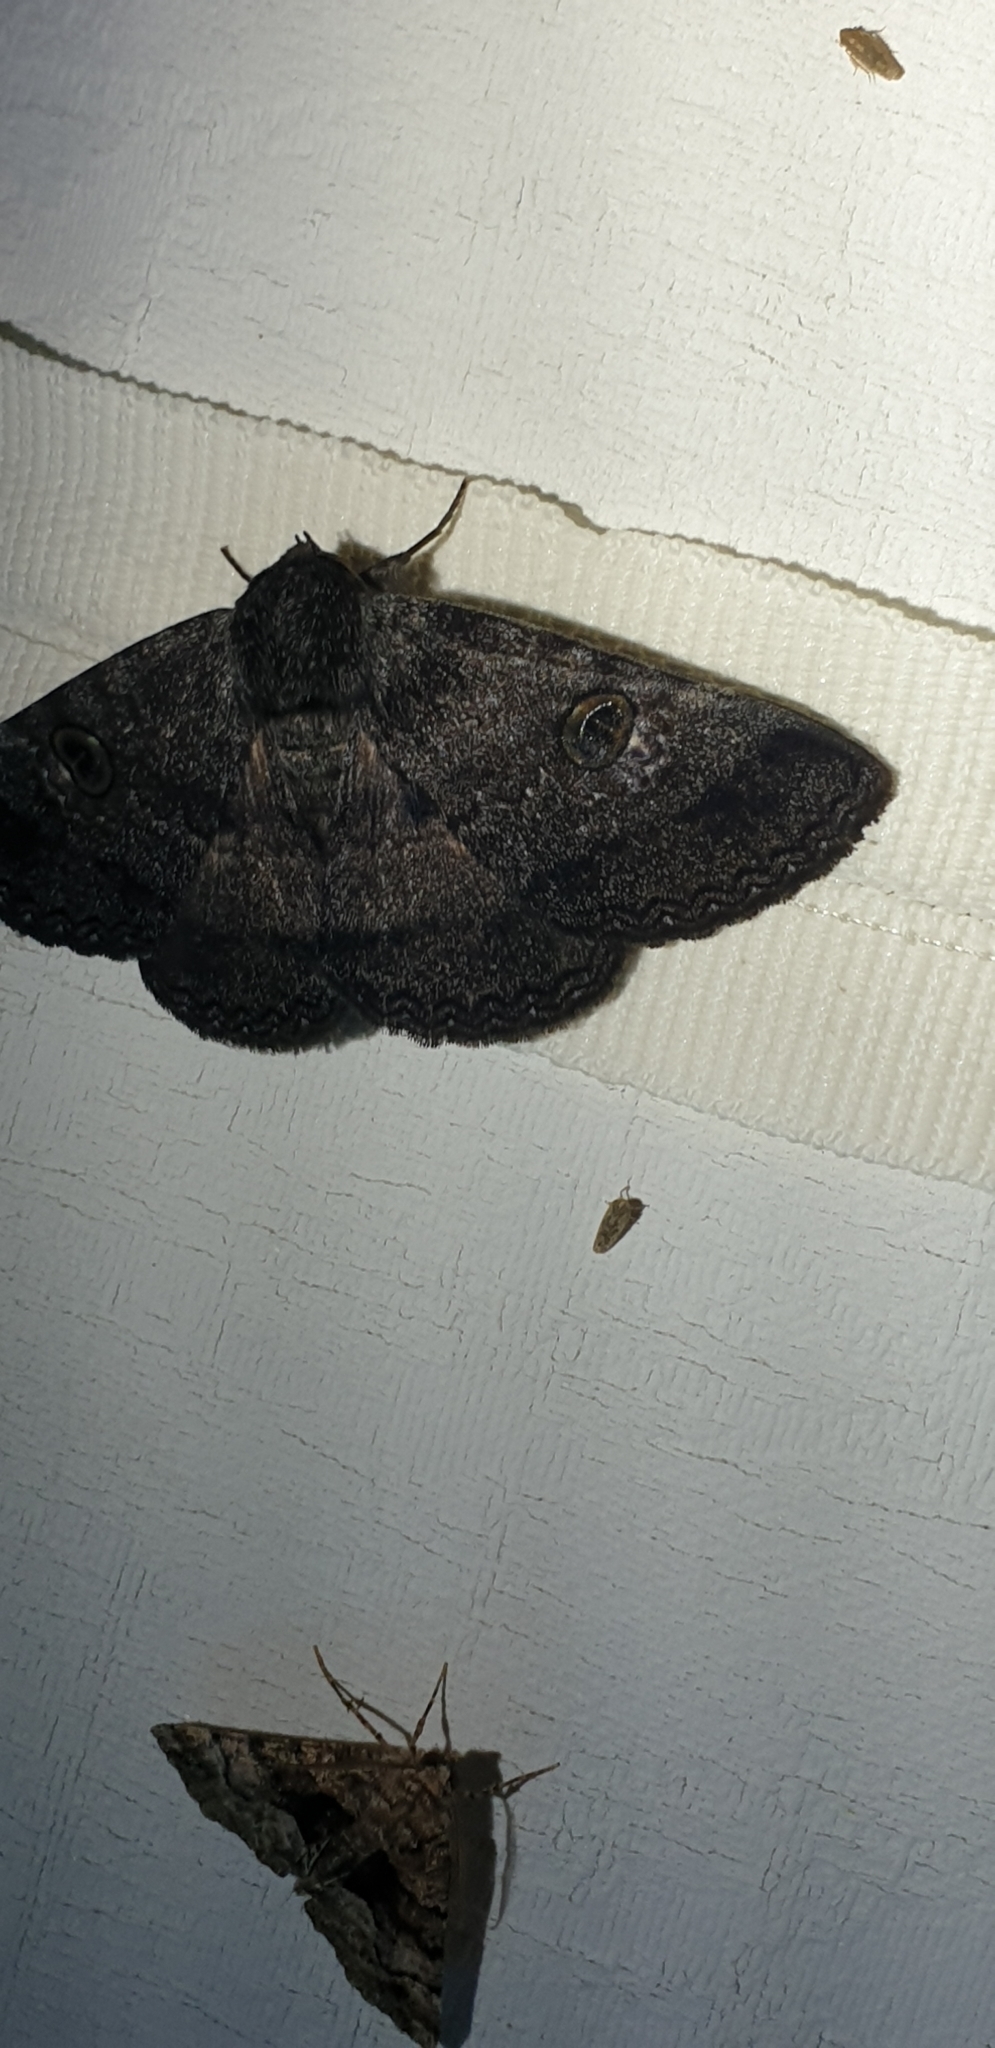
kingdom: Animalia
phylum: Arthropoda
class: Insecta
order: Lepidoptera
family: Erebidae
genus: Donuca
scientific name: Donuca castalia
